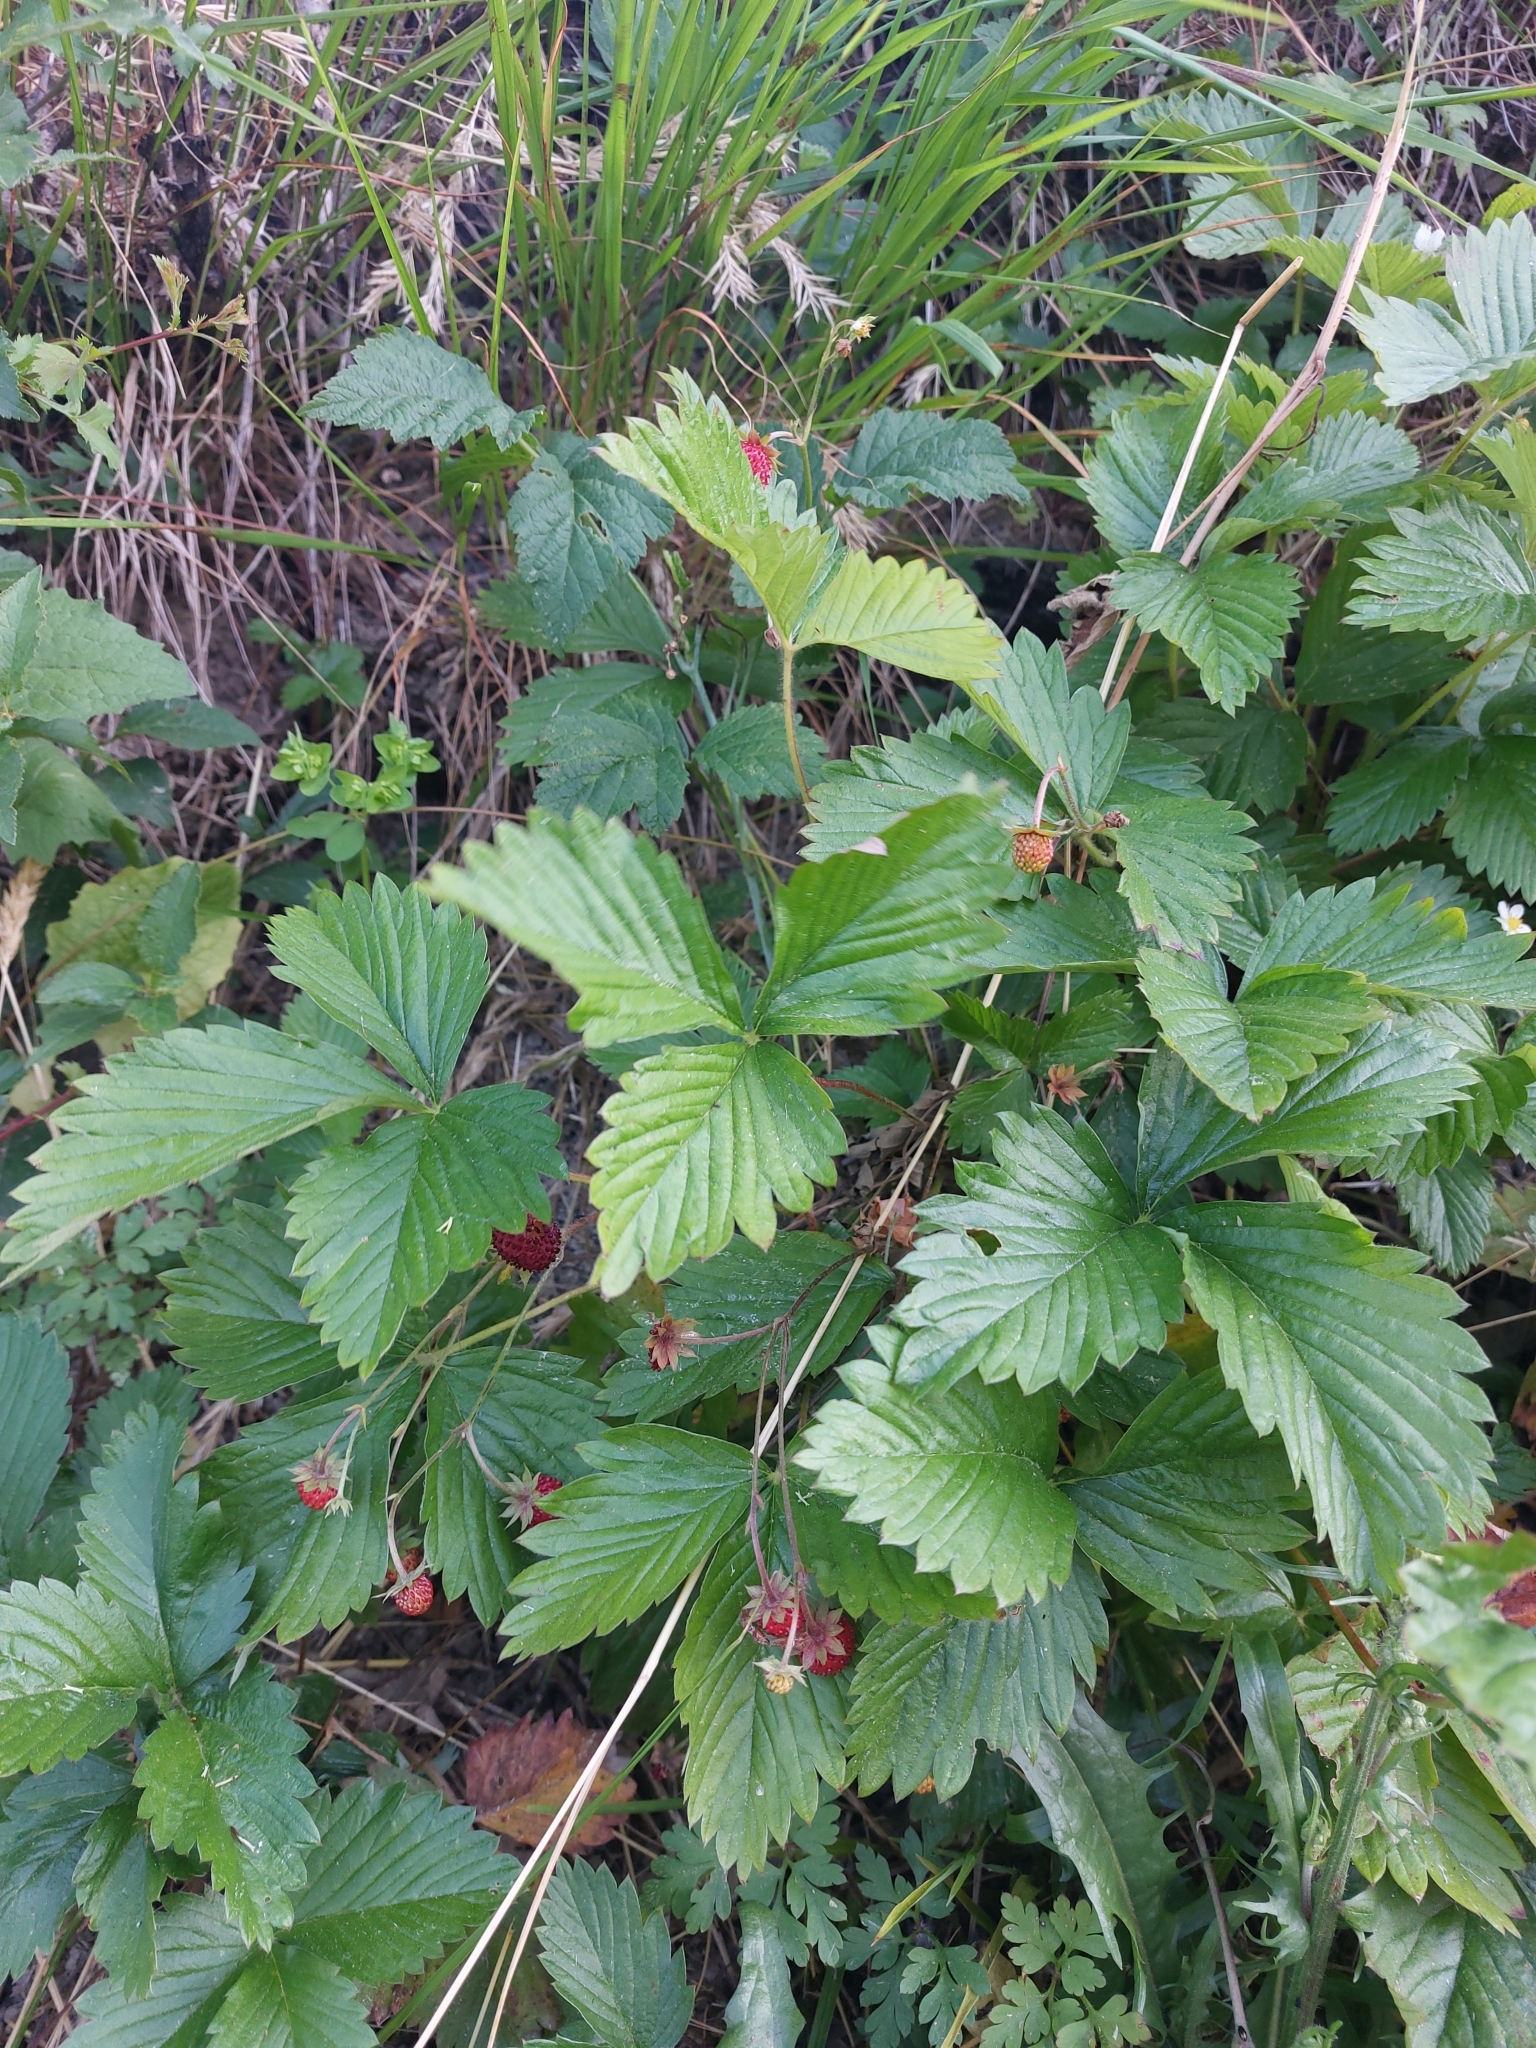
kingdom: Plantae
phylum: Tracheophyta
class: Magnoliopsida
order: Rosales
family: Rosaceae
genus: Fragaria
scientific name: Fragaria vesca
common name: Wild strawberry
